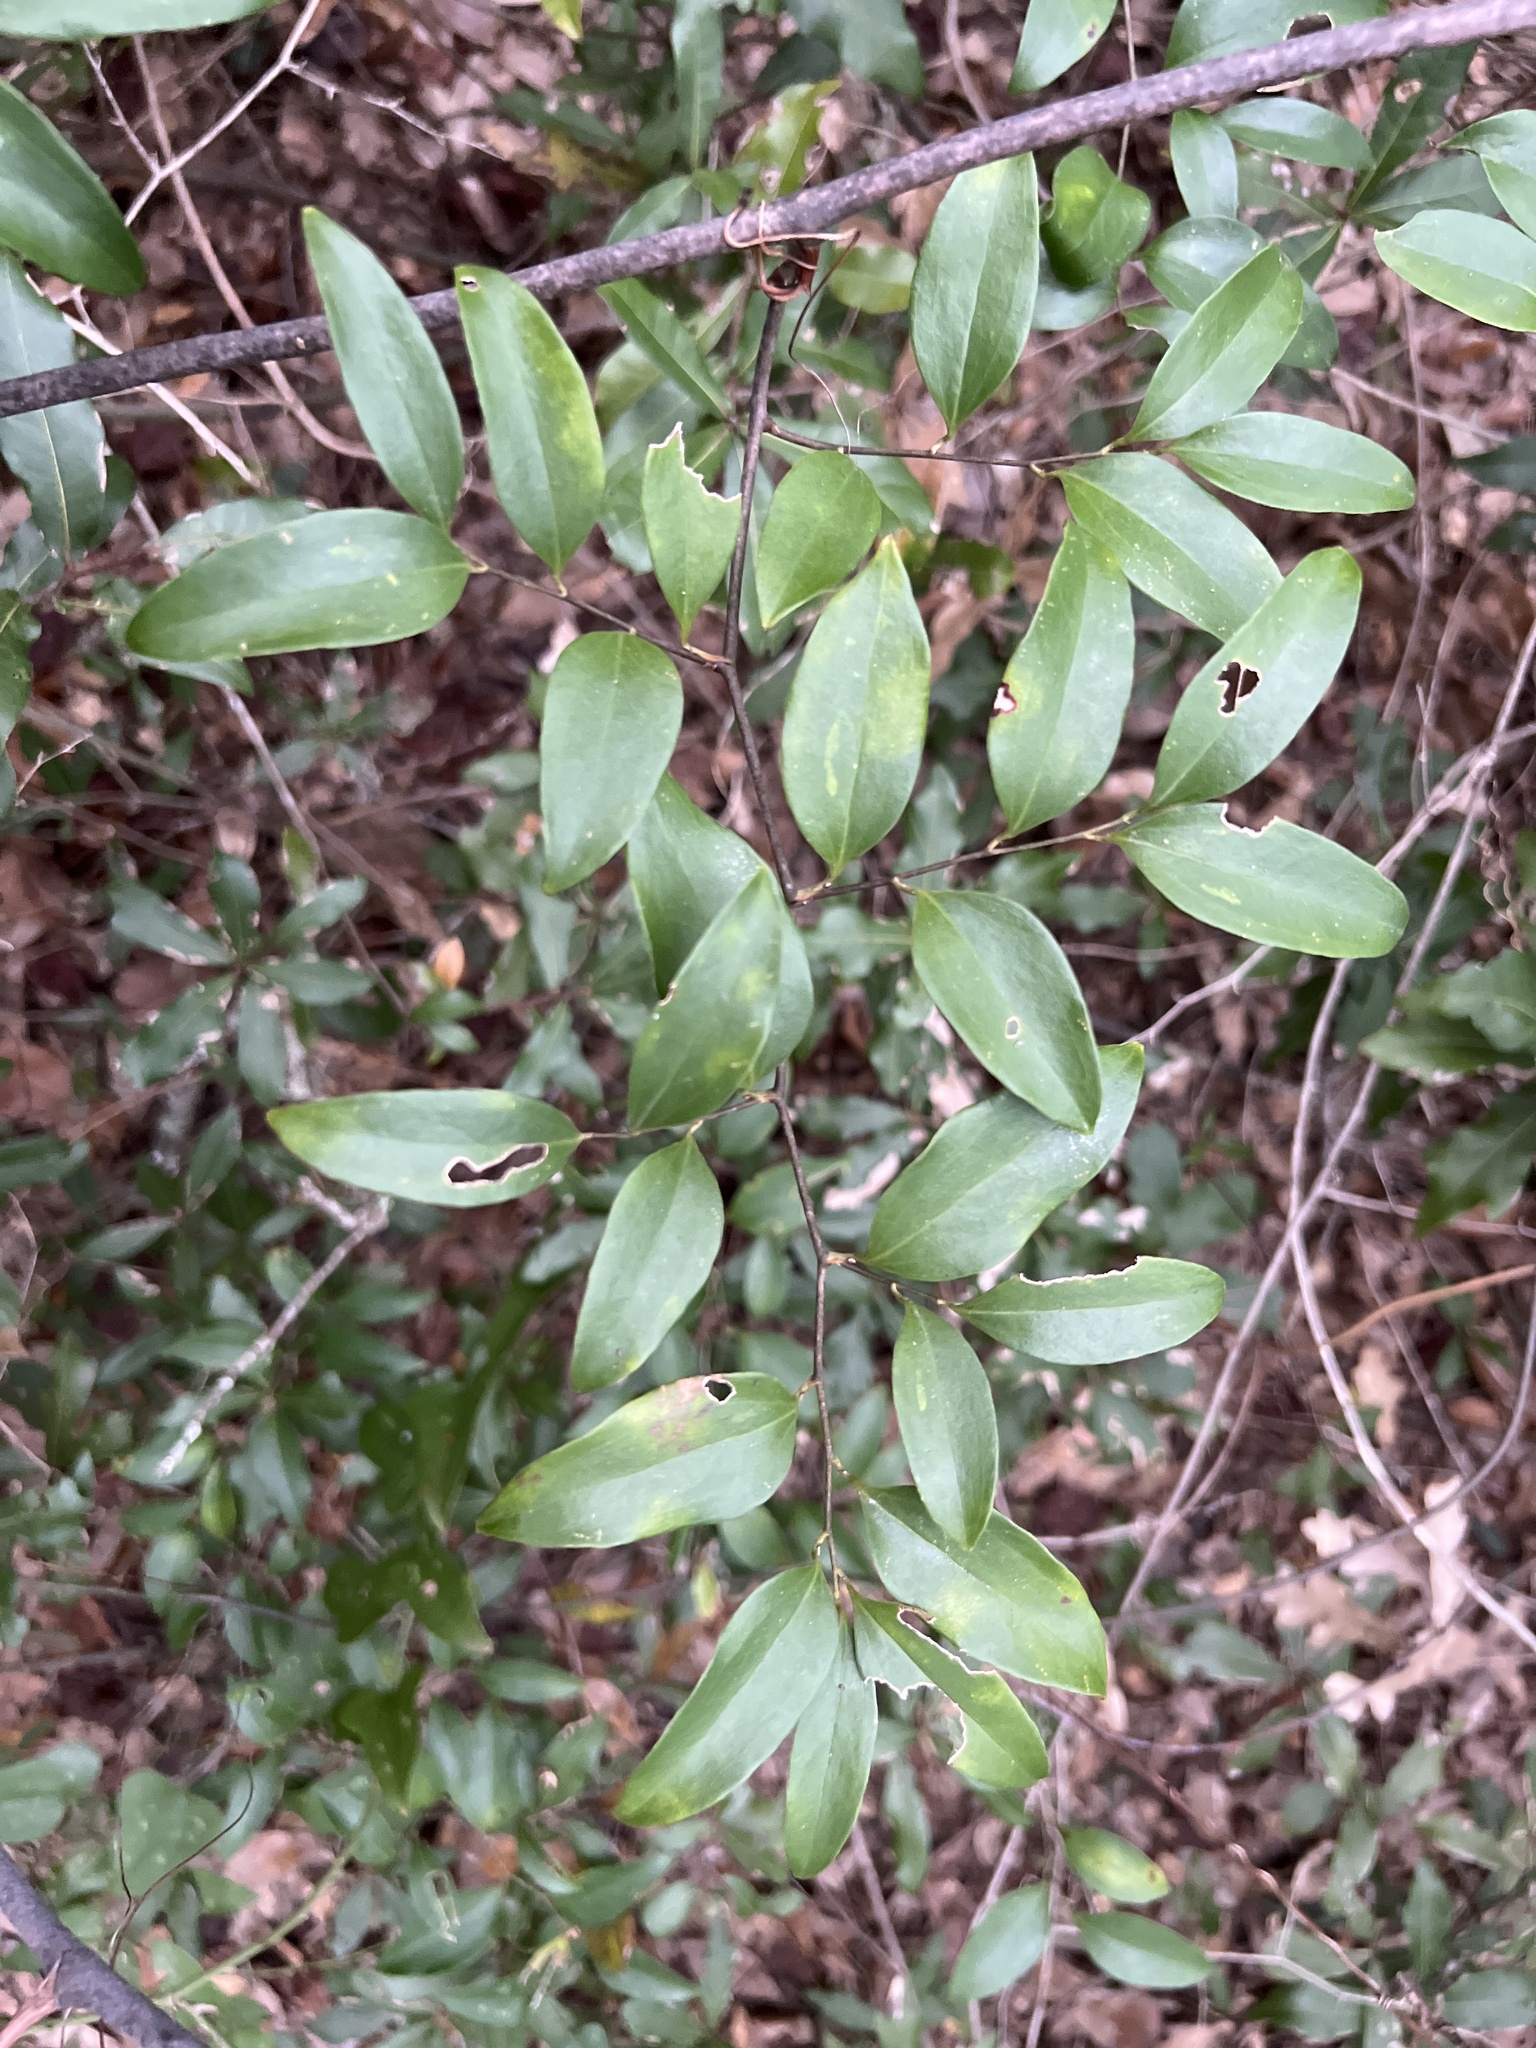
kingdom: Plantae
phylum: Tracheophyta
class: Liliopsida
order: Liliales
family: Smilacaceae
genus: Smilax
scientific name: Smilax maritima
